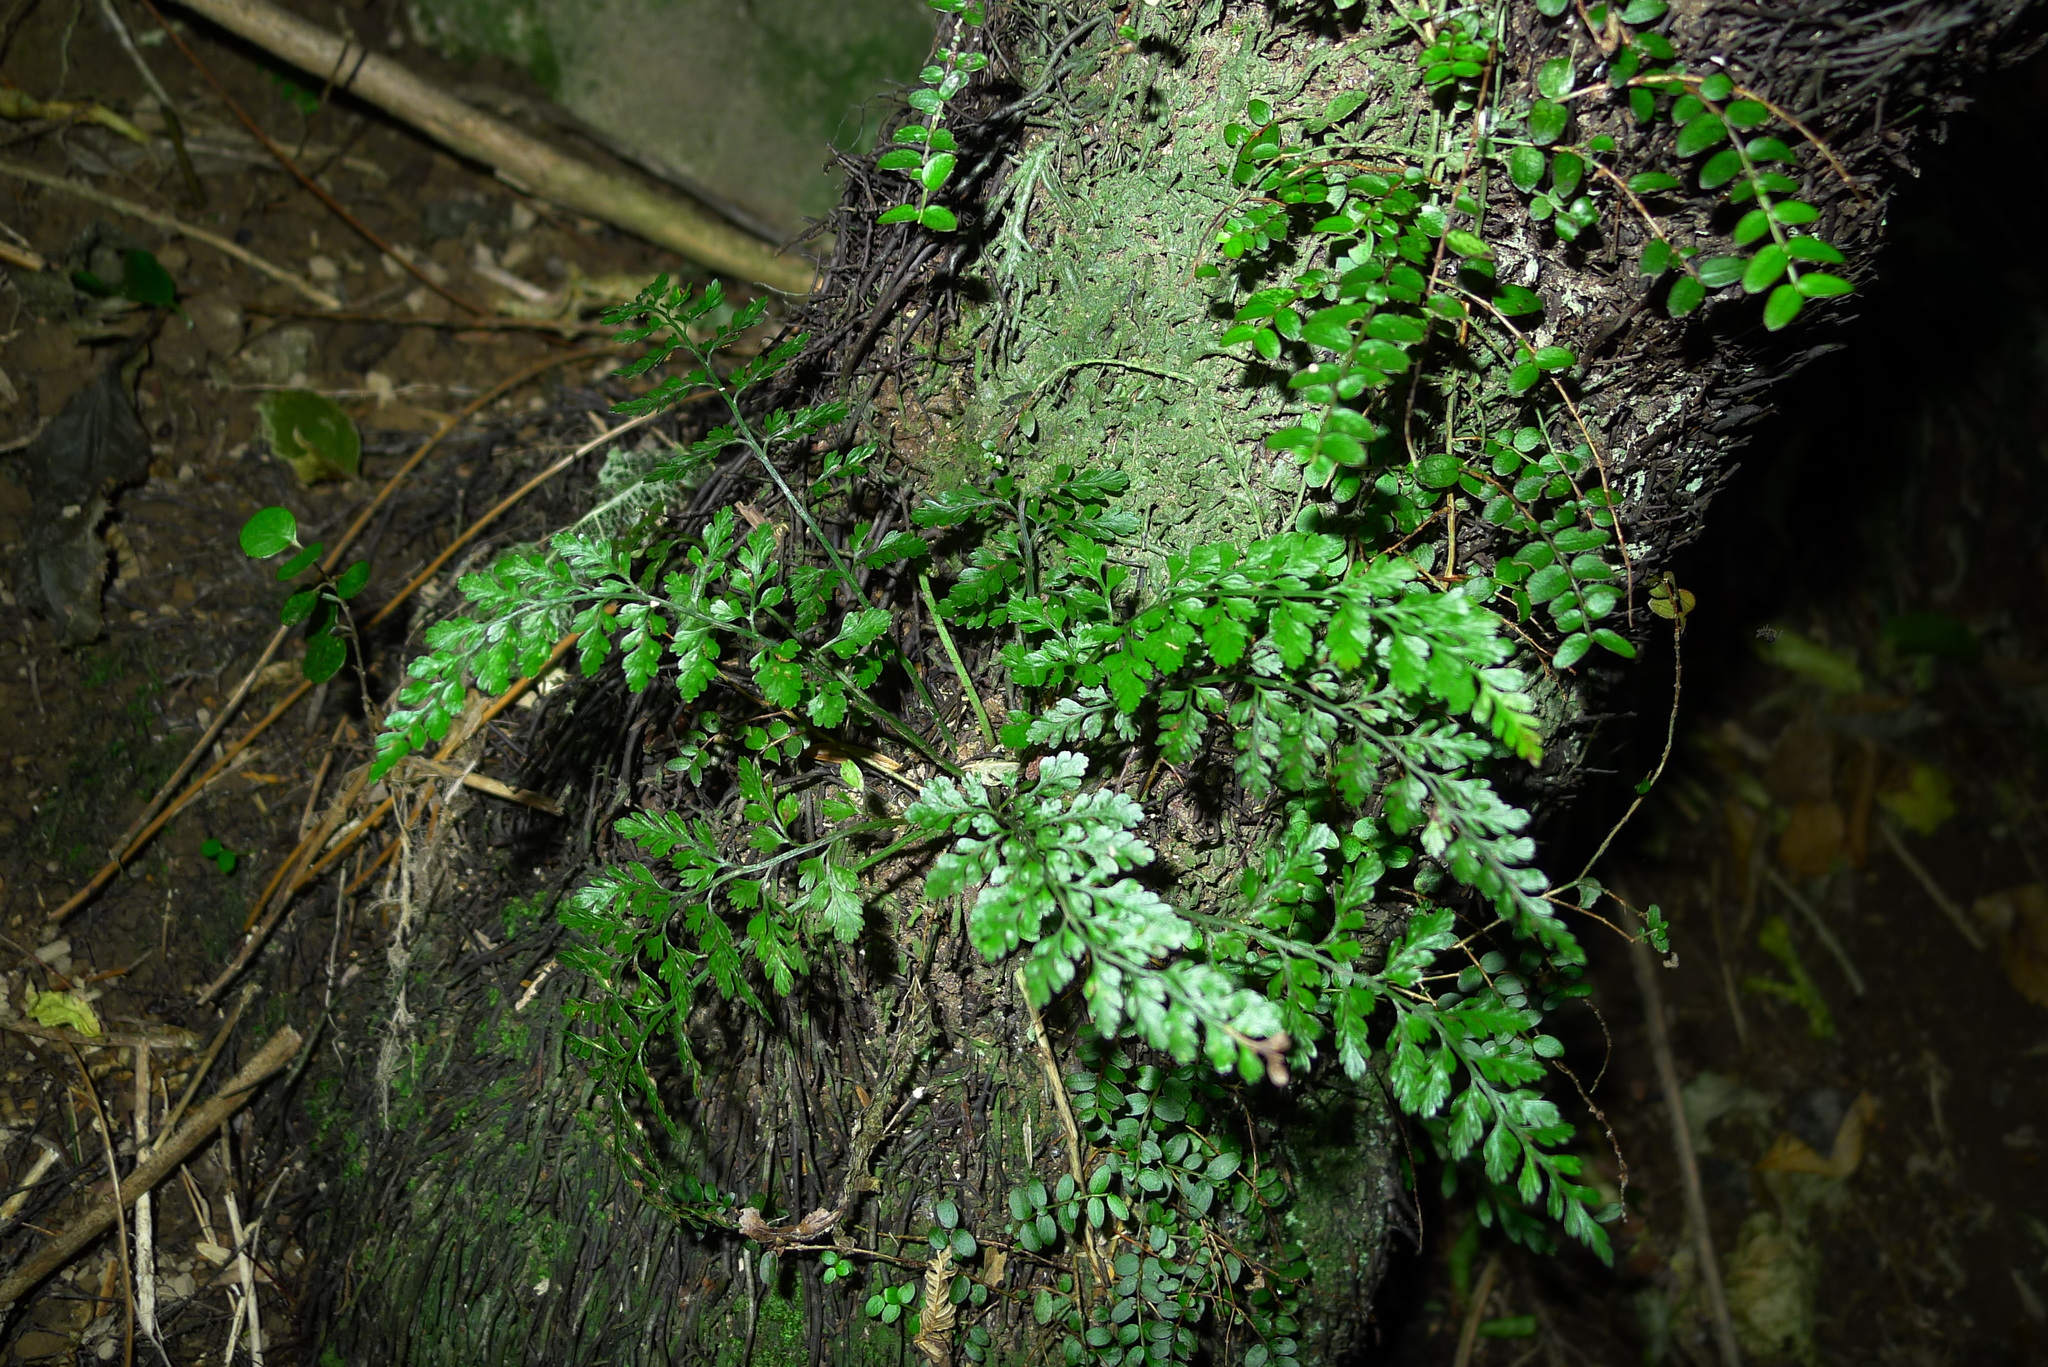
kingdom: Plantae
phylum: Tracheophyta
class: Polypodiopsida
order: Polypodiales
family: Aspleniaceae
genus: Asplenium
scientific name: Asplenium hookerianum
